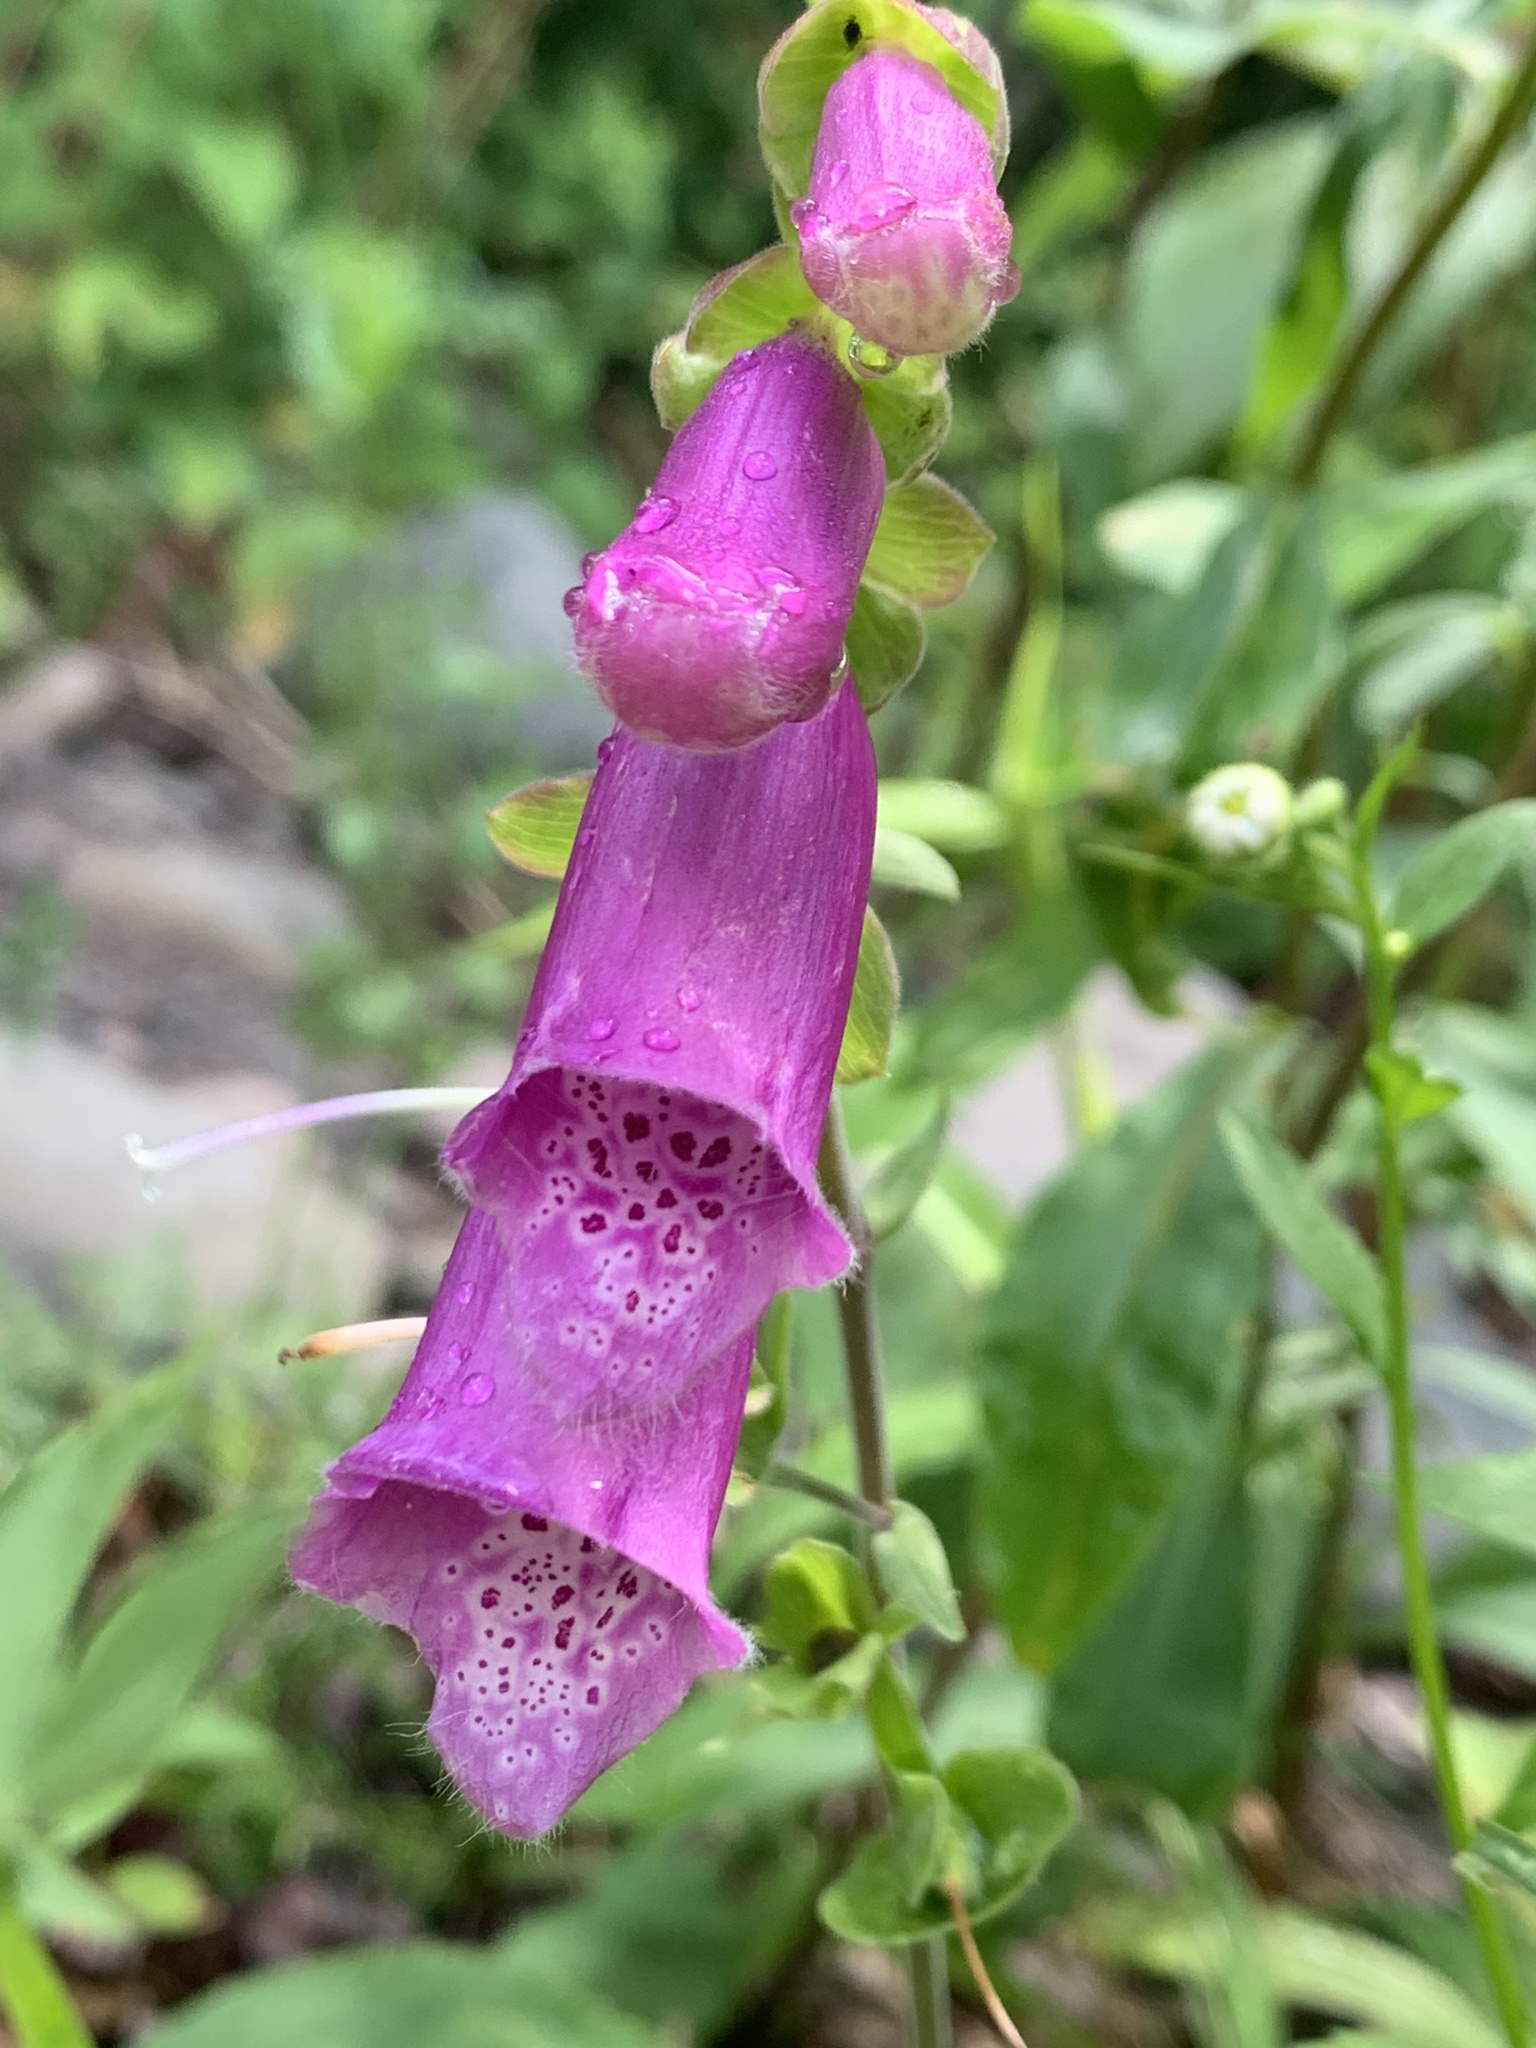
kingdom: Plantae
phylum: Tracheophyta
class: Magnoliopsida
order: Lamiales
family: Plantaginaceae
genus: Digitalis
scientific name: Digitalis purpurea
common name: Foxglove
